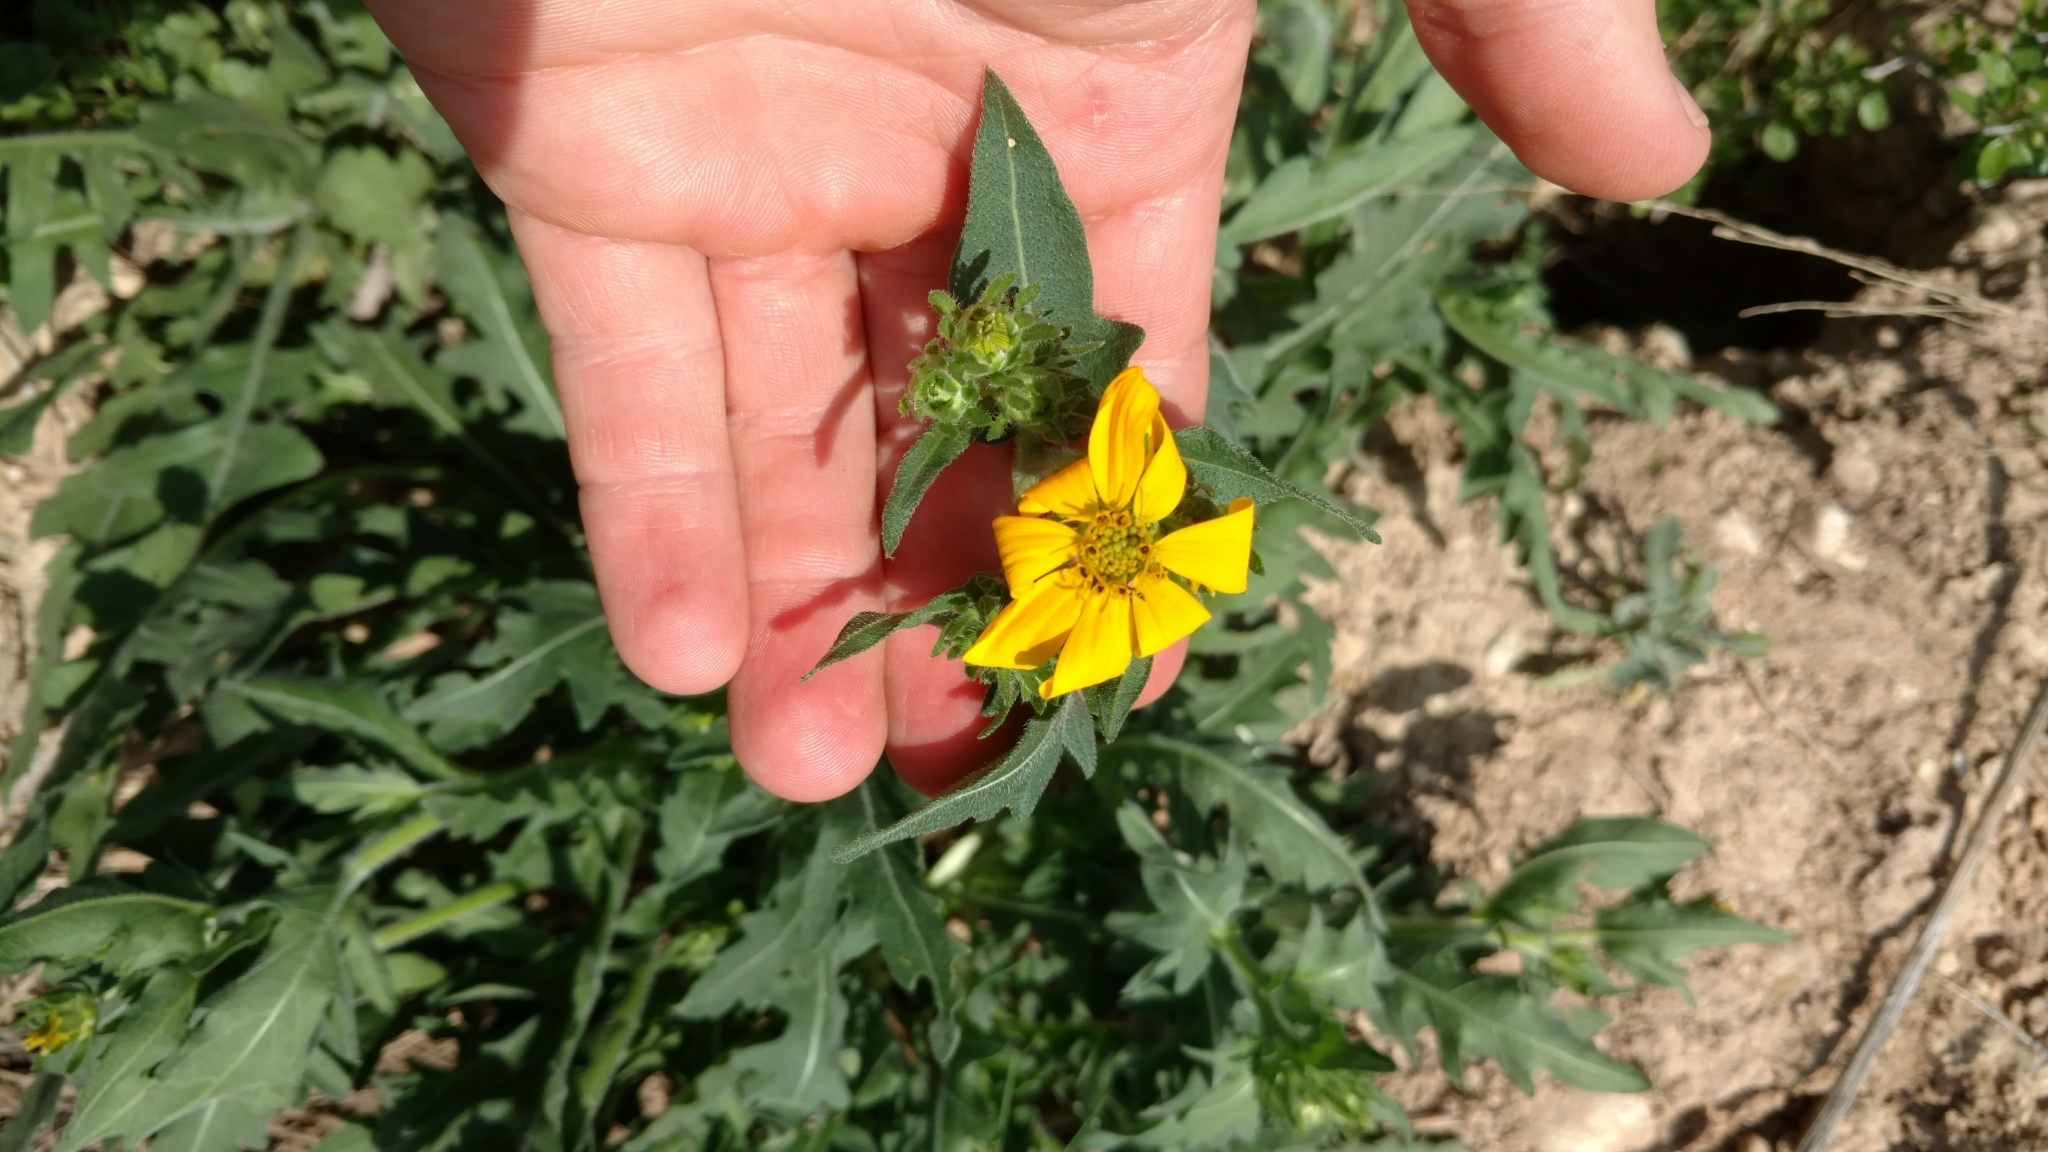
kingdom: Plantae
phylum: Tracheophyta
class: Magnoliopsida
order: Asterales
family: Asteraceae
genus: Engelmannia
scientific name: Engelmannia peristenia
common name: Engelmann's daisy
